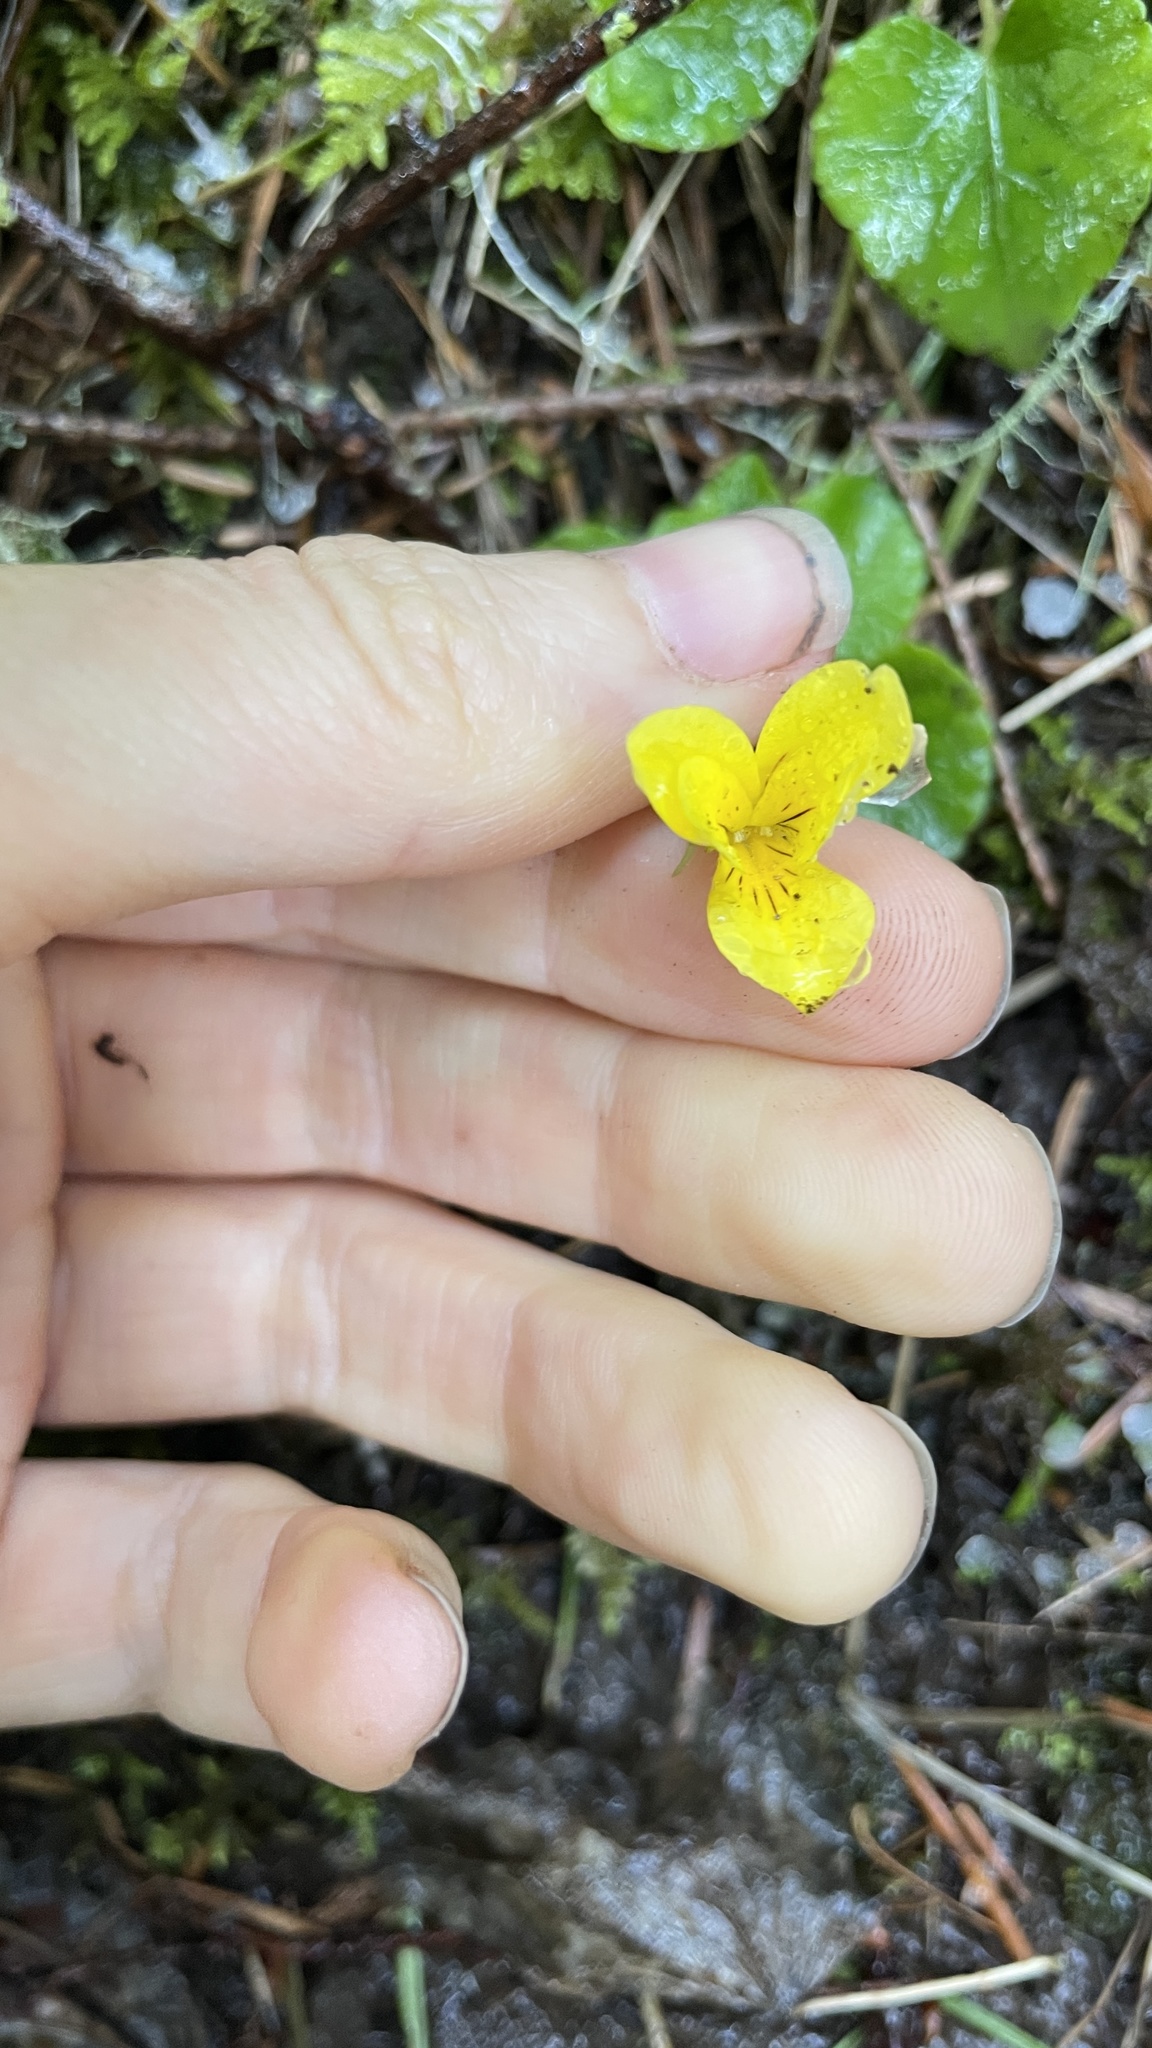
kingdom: Plantae
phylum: Tracheophyta
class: Magnoliopsida
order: Malpighiales
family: Violaceae
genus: Viola
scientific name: Viola sempervirens
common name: Evergreen violet
